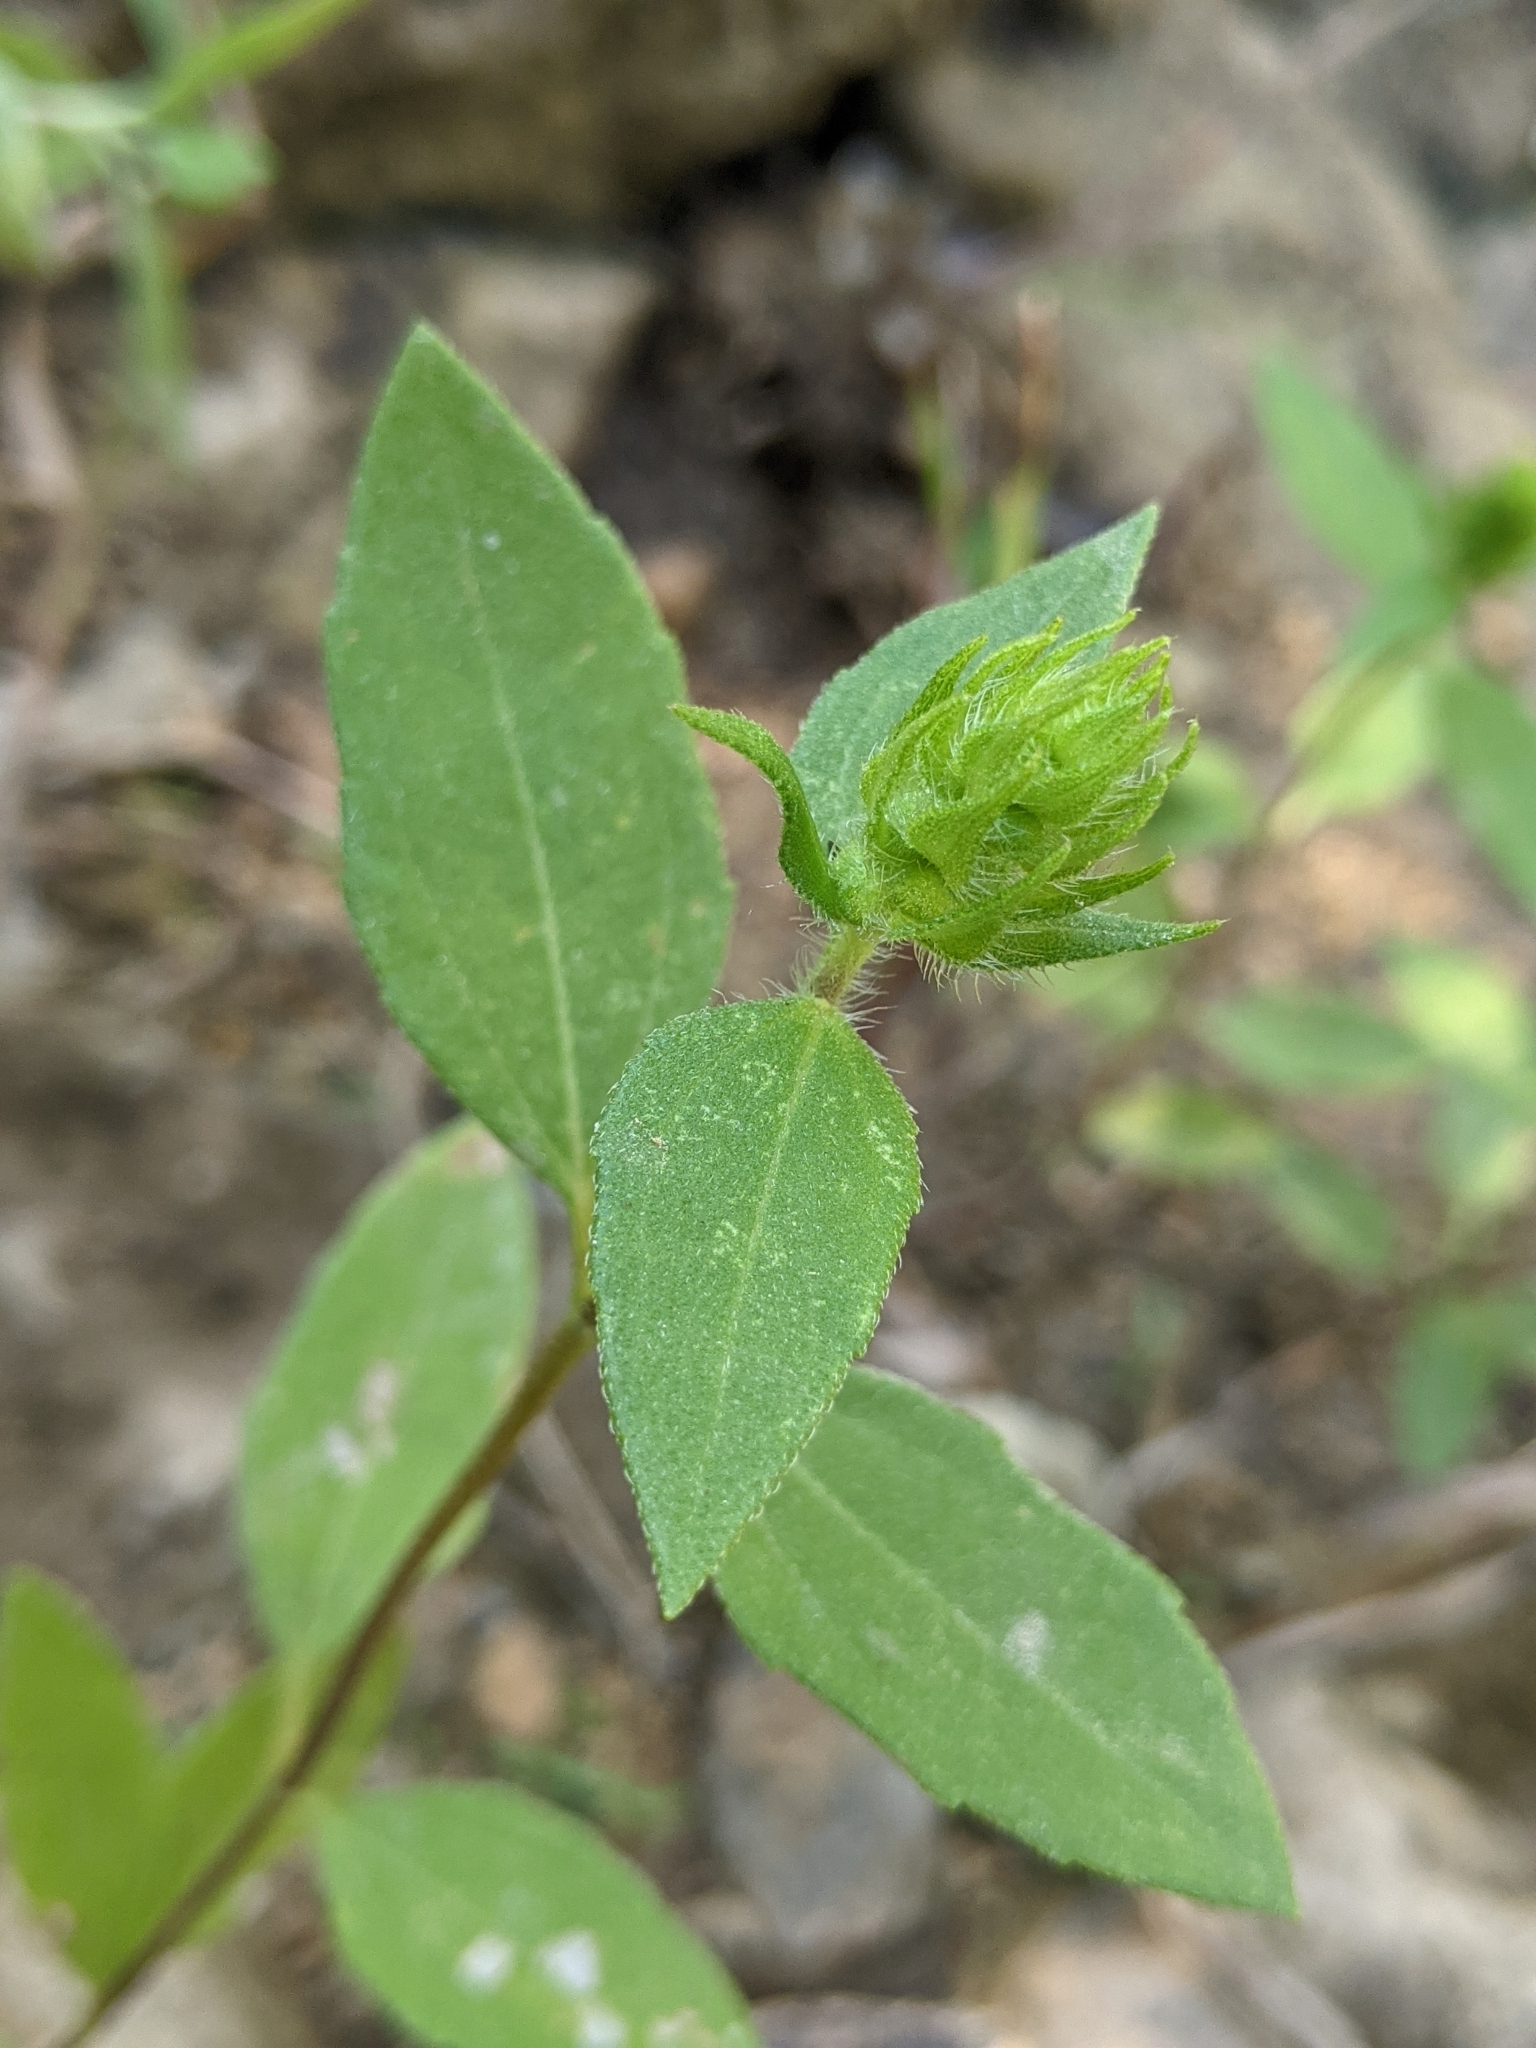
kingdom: Plantae
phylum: Tracheophyta
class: Magnoliopsida
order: Asterales
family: Asteraceae
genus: Iva
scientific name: Iva annua
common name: Marsh-elder
